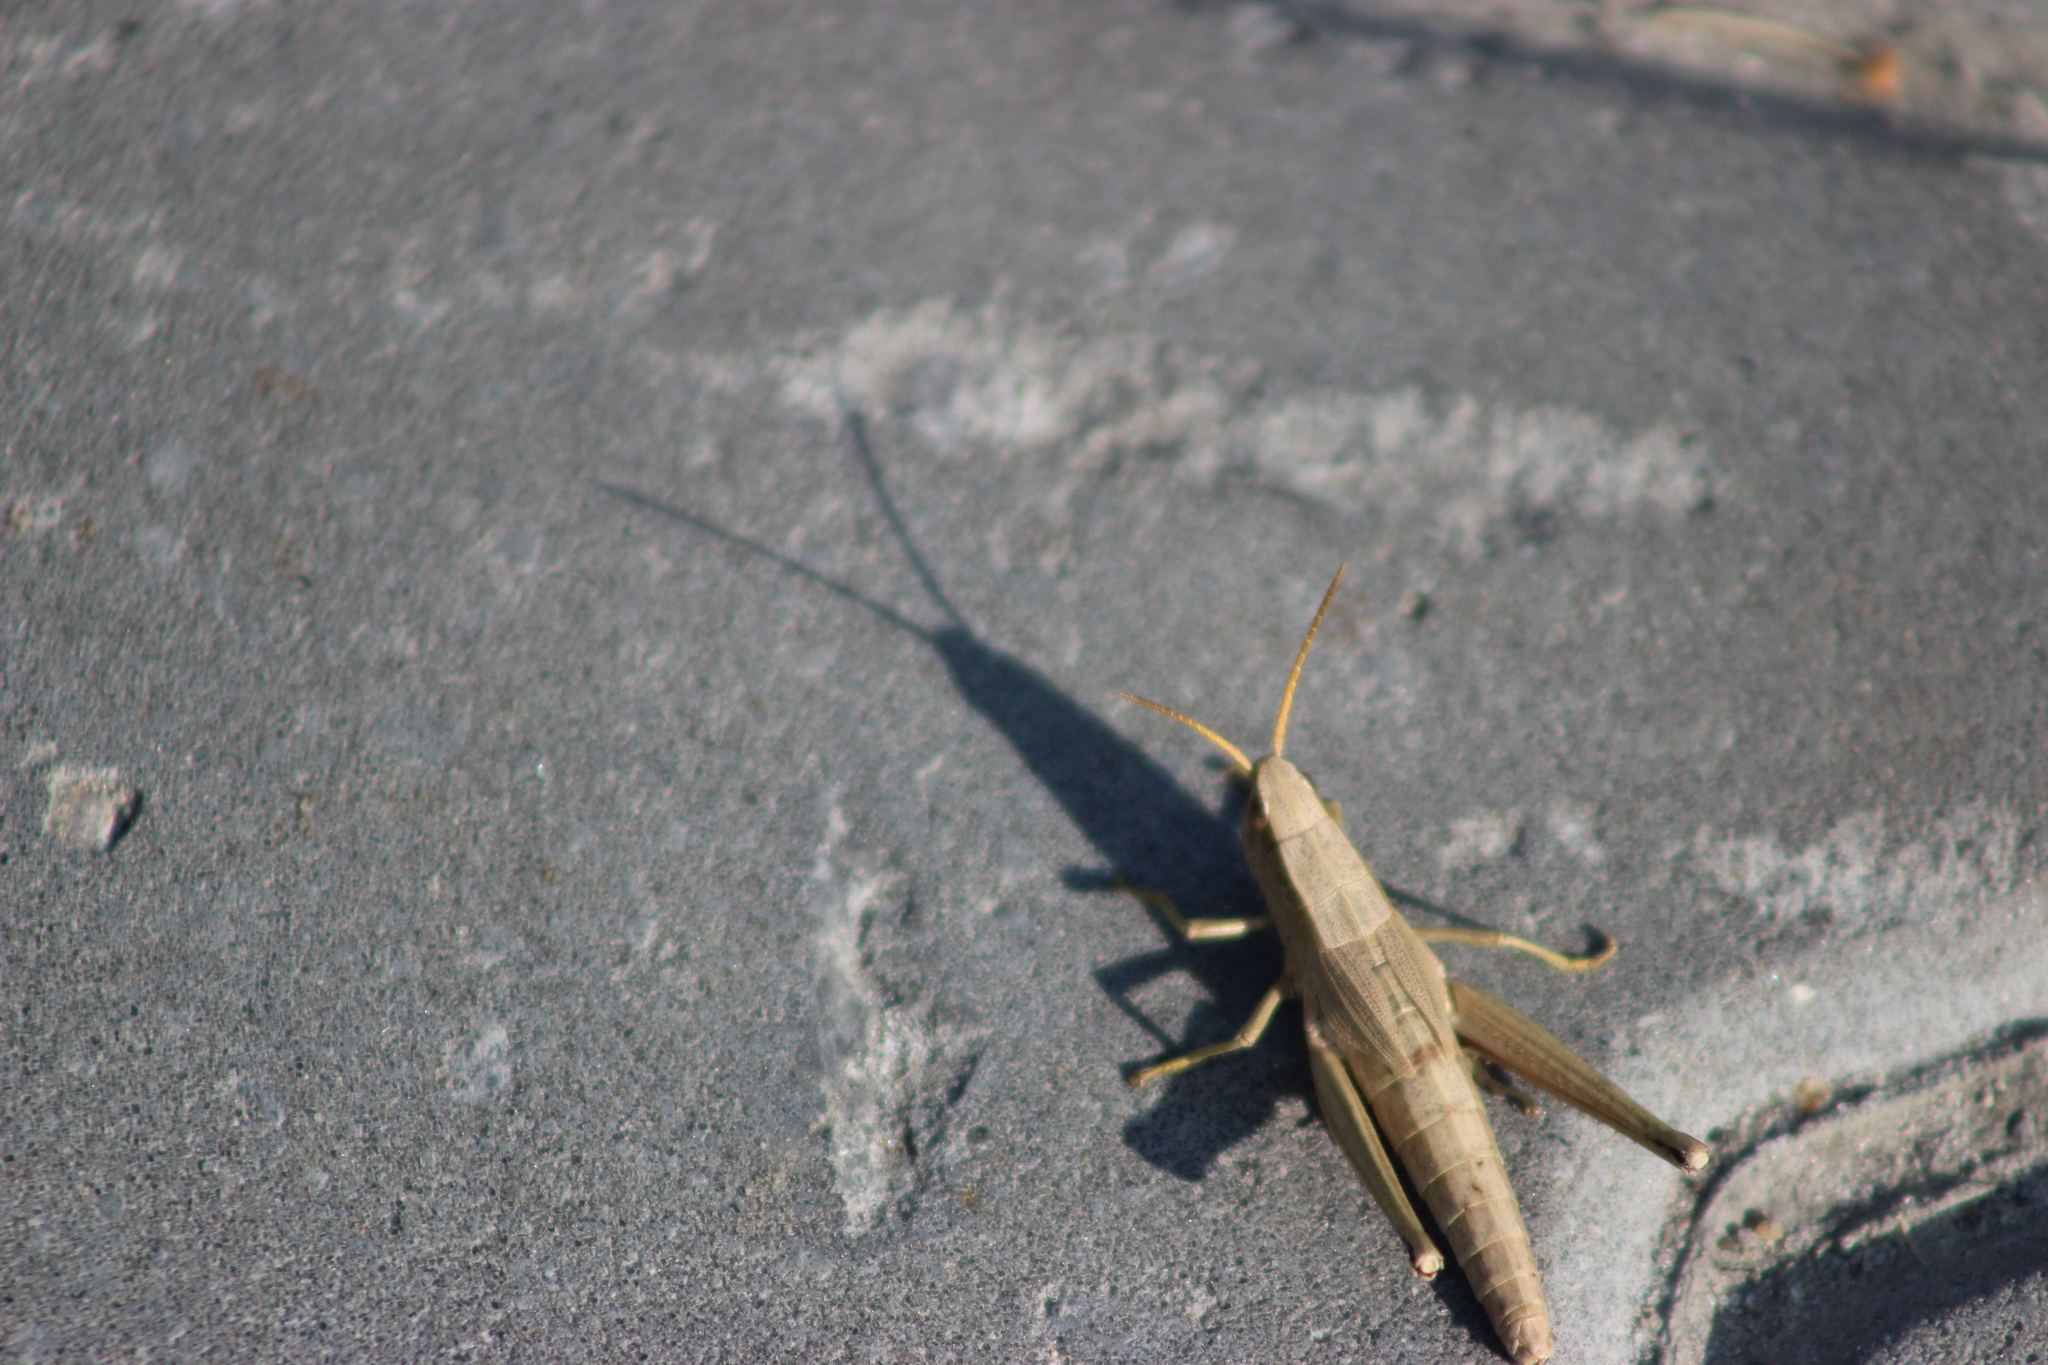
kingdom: Animalia
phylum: Arthropoda
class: Insecta
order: Orthoptera
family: Acrididae
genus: Chrysochraon
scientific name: Chrysochraon dispar
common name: Large gold grasshopper
